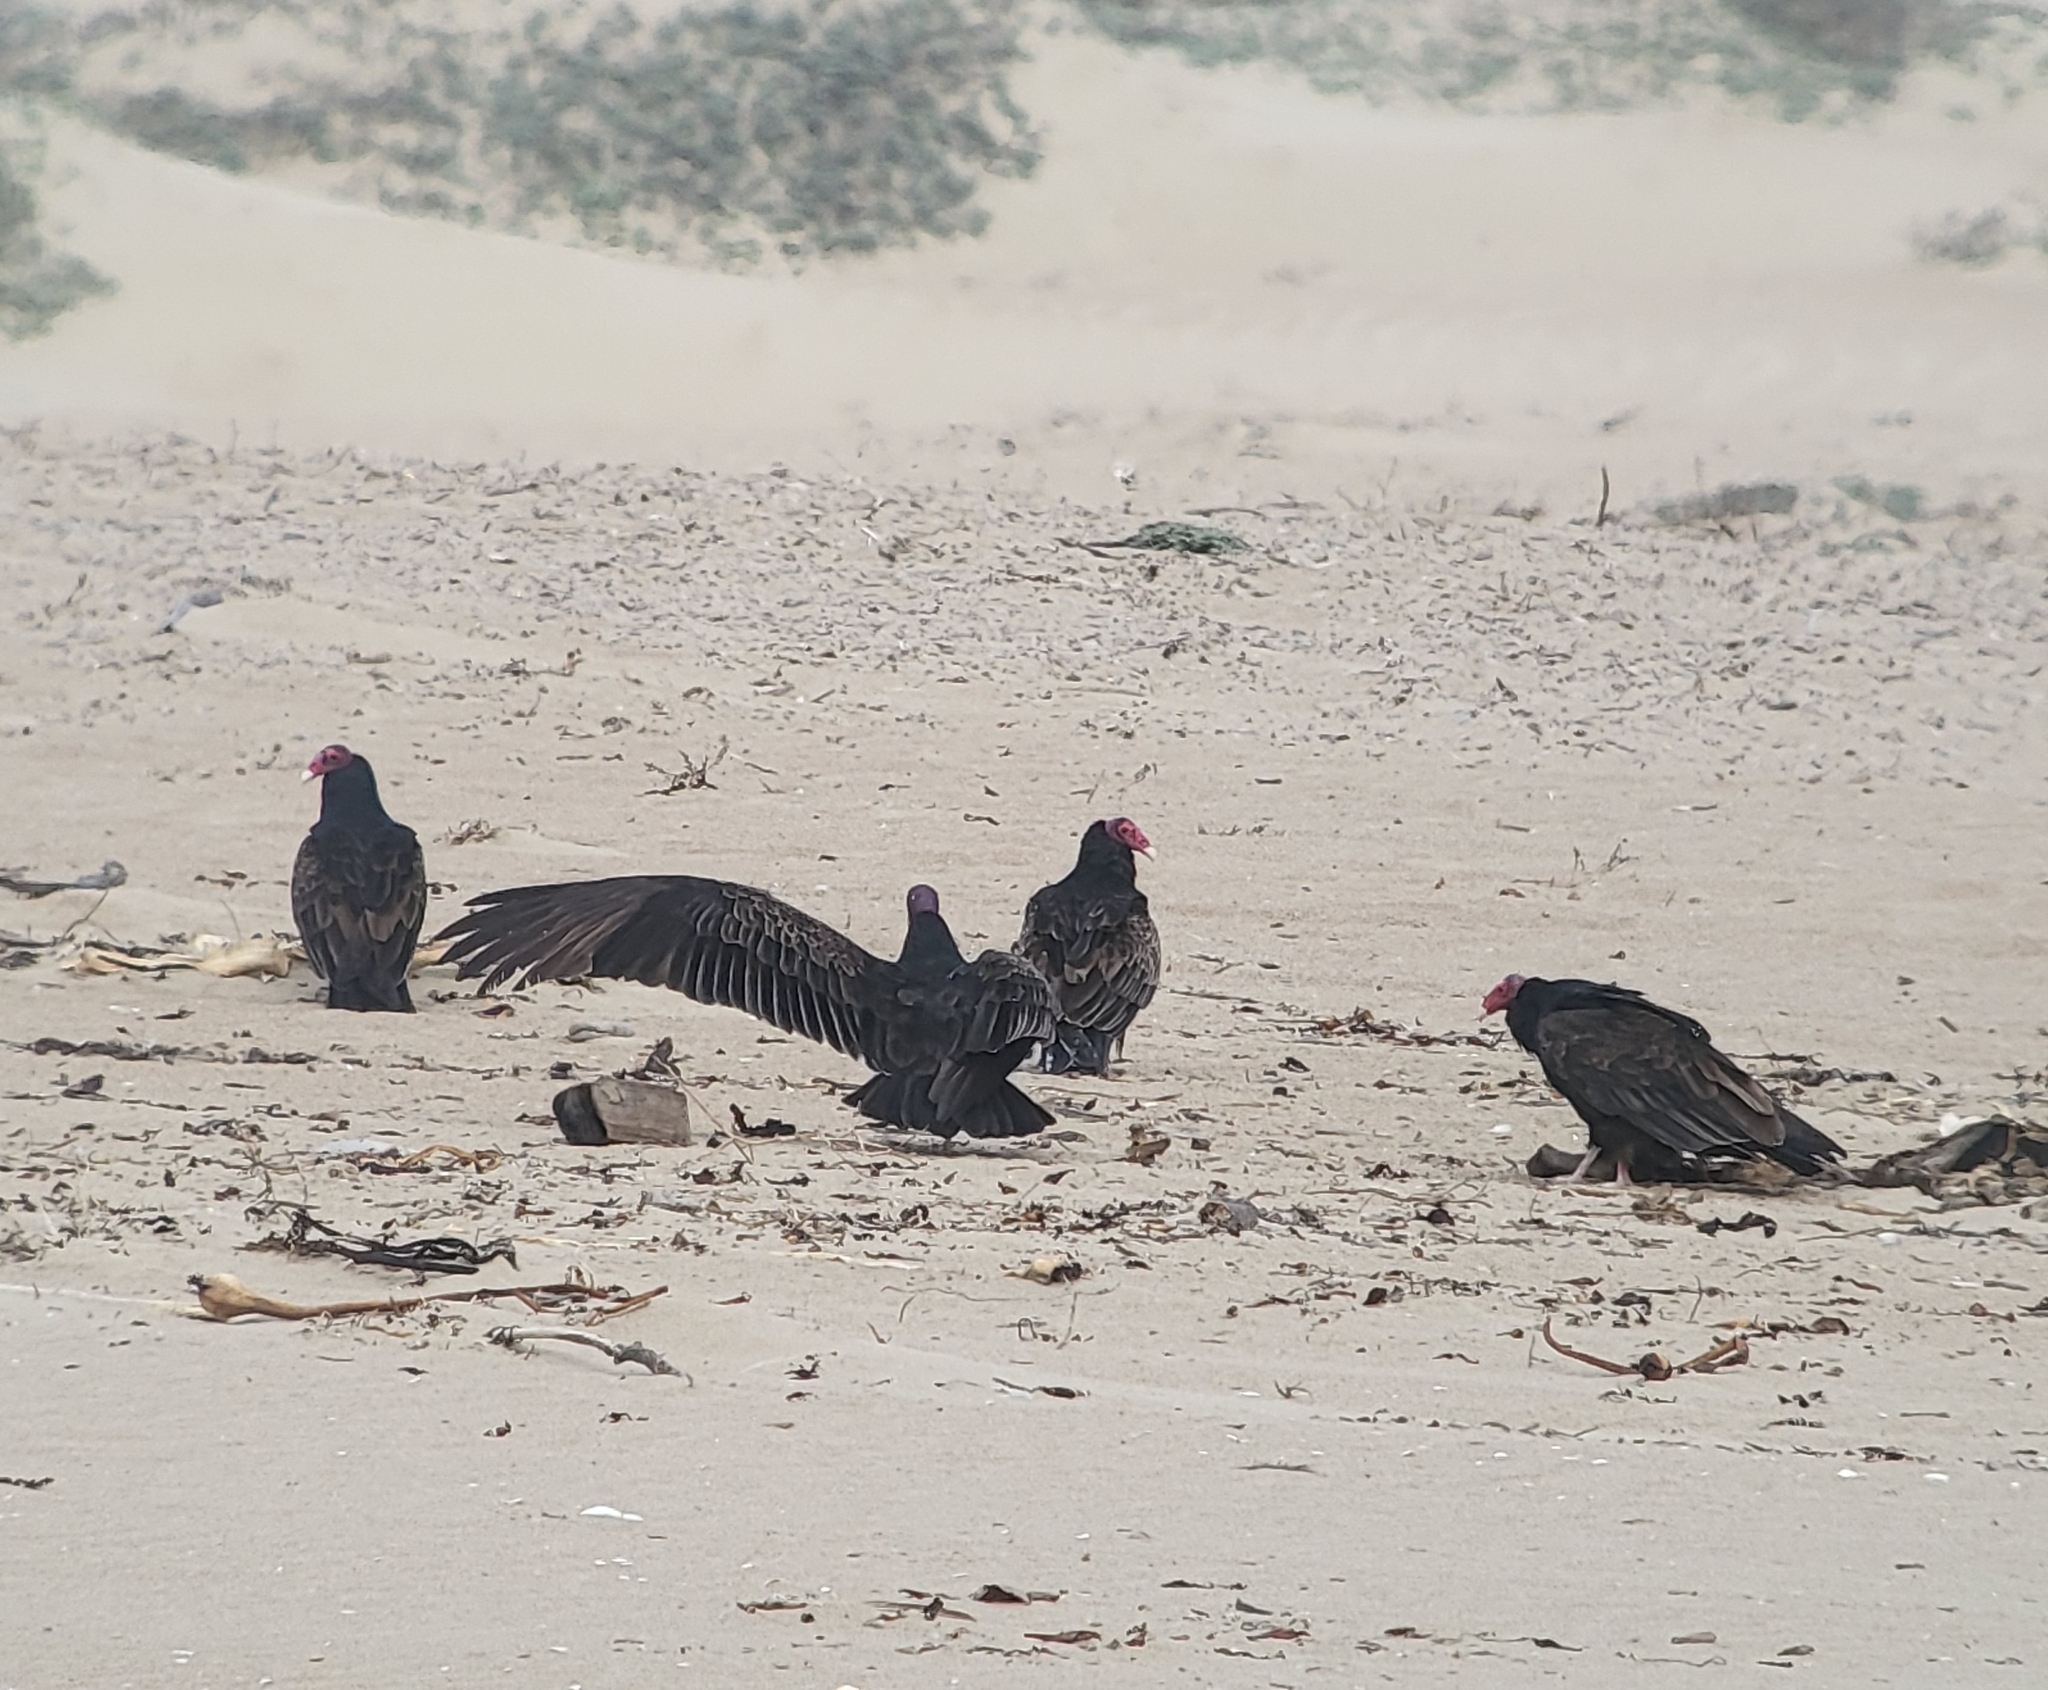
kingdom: Animalia
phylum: Chordata
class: Aves
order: Accipitriformes
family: Cathartidae
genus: Cathartes
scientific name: Cathartes aura
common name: Turkey vulture
